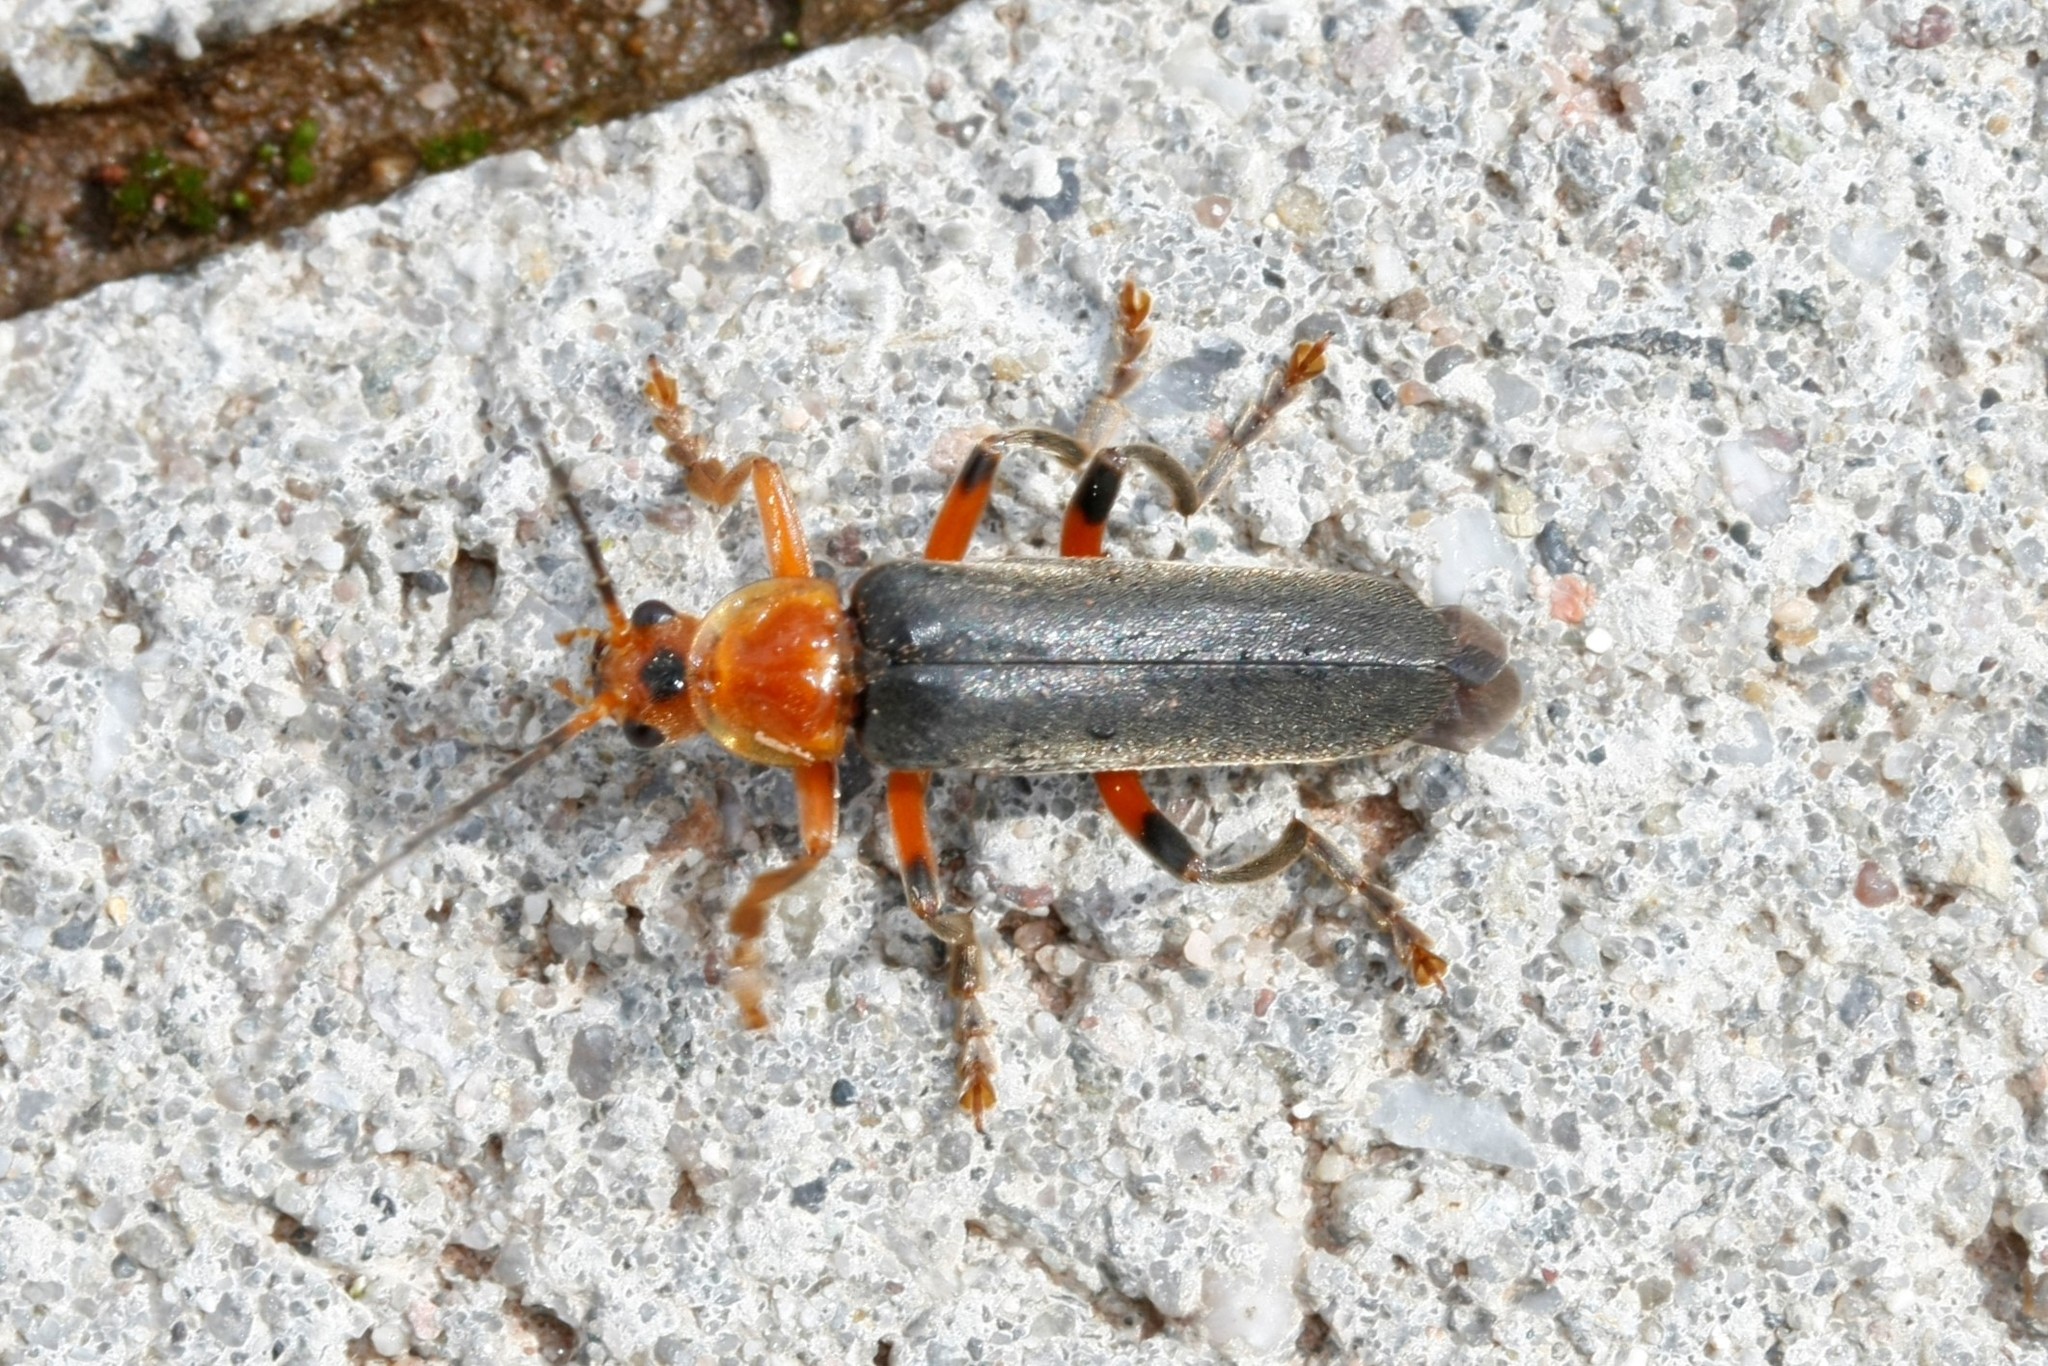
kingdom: Animalia
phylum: Arthropoda
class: Insecta
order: Coleoptera
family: Cantharidae
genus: Cantharis
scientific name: Cantharis livida
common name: Livid soldier beetle
